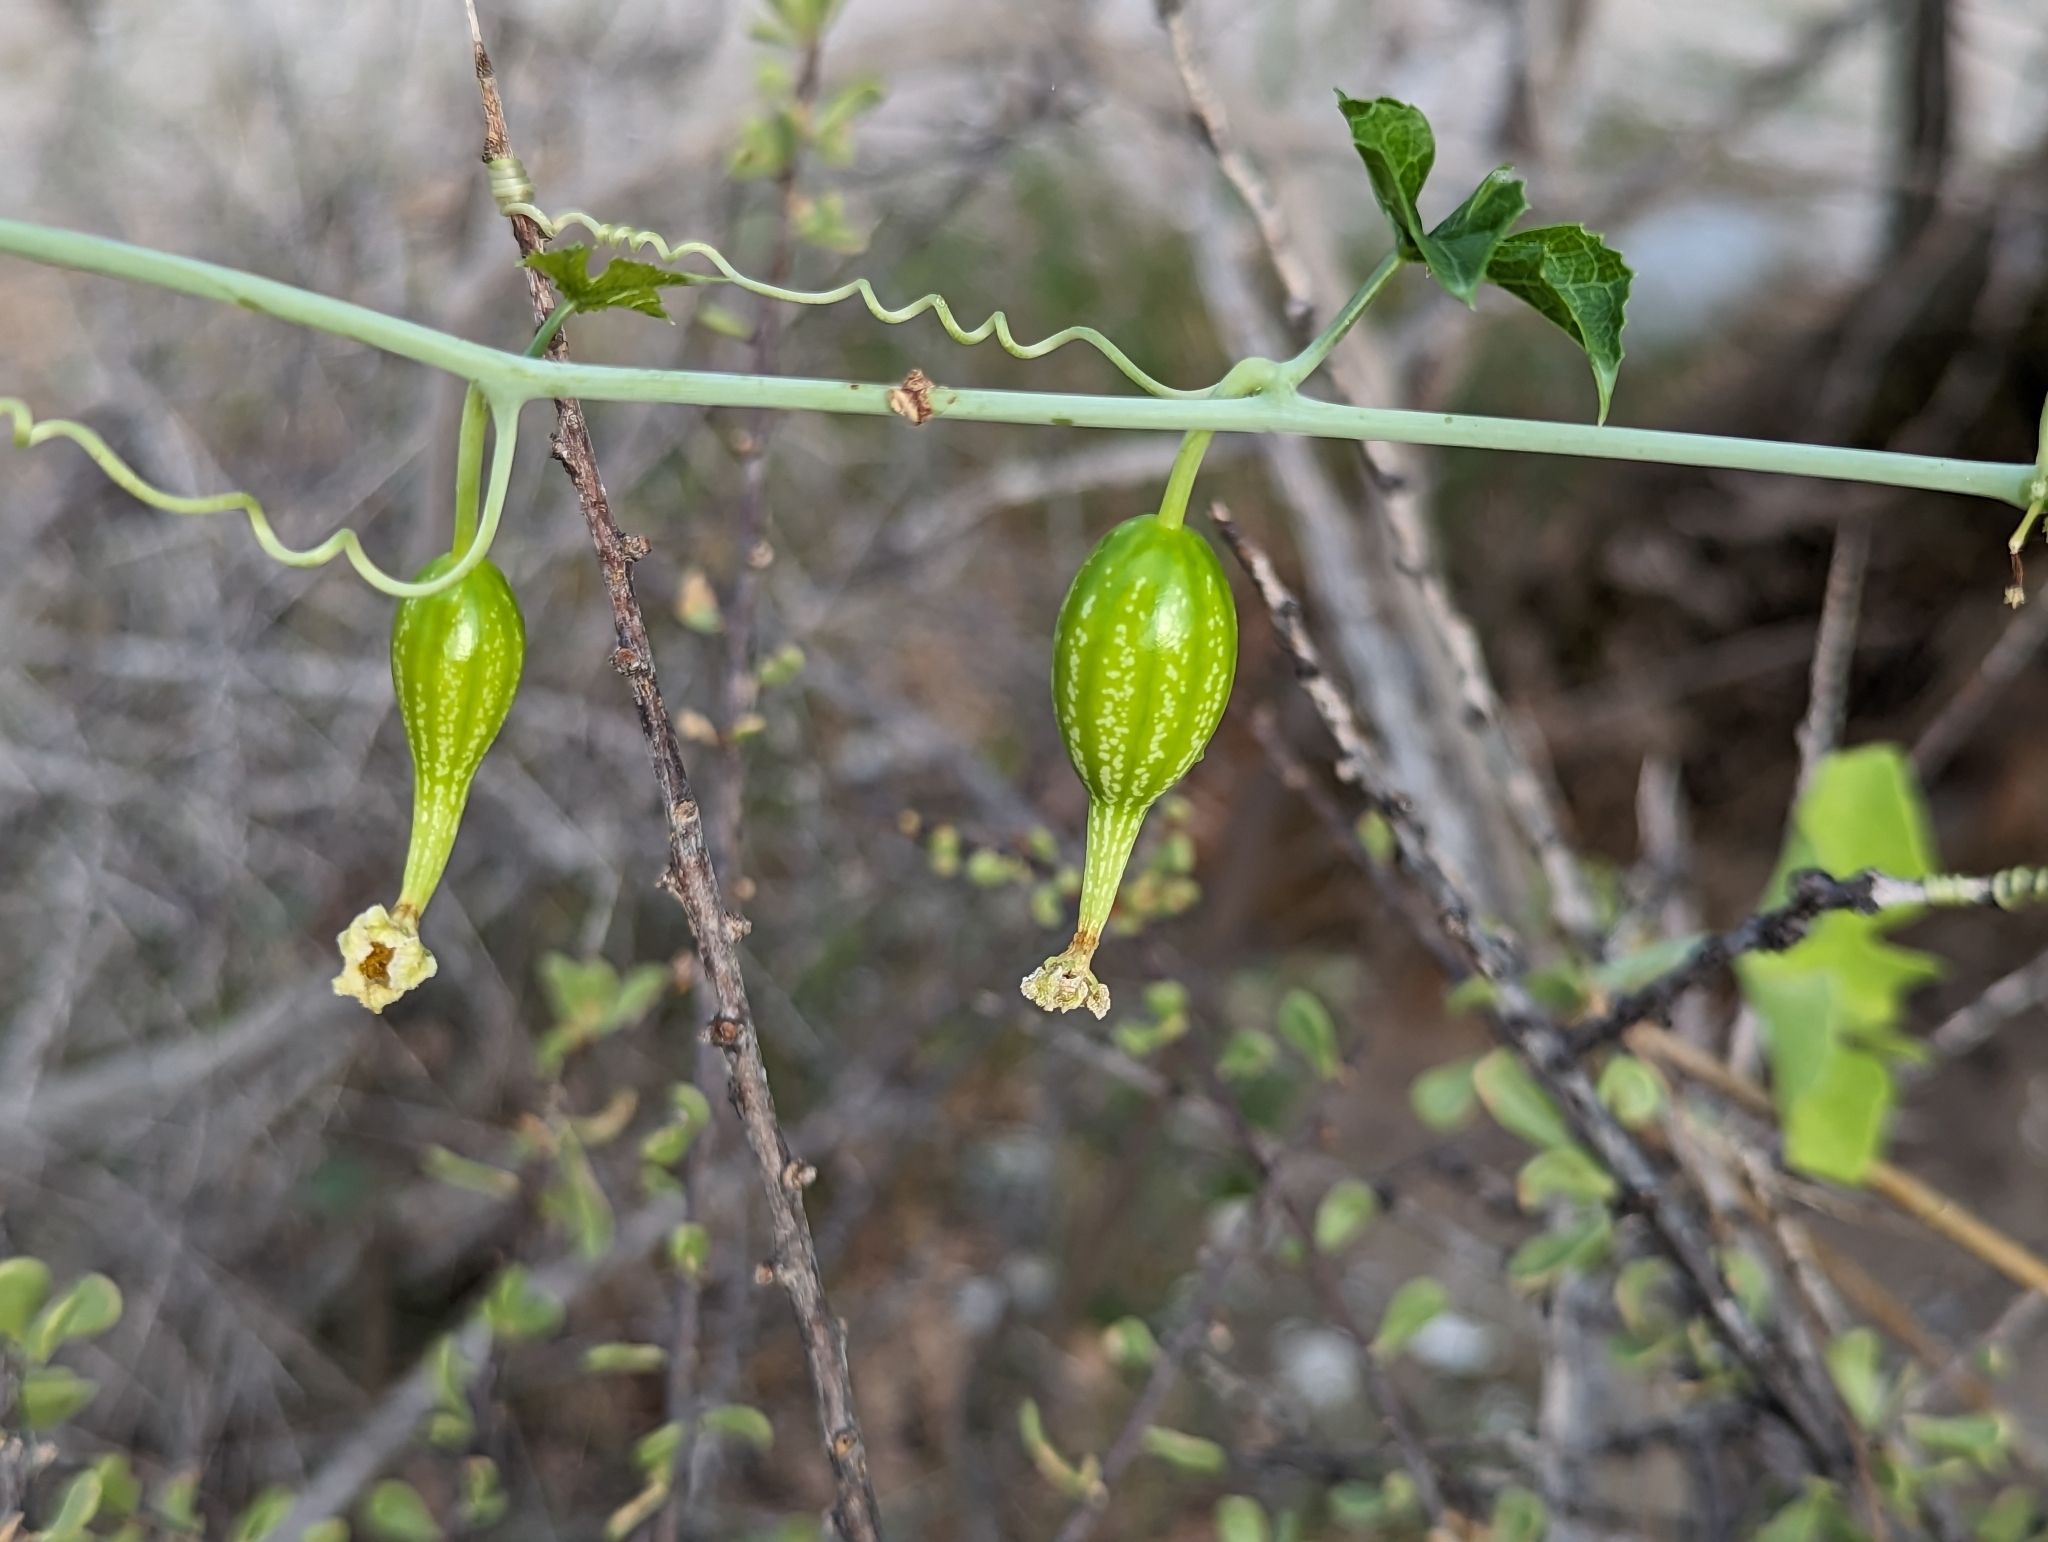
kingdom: Plantae
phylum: Tracheophyta
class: Magnoliopsida
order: Cucurbitales
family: Cucurbitaceae
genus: Ibervillea
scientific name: Ibervillea sonorae
